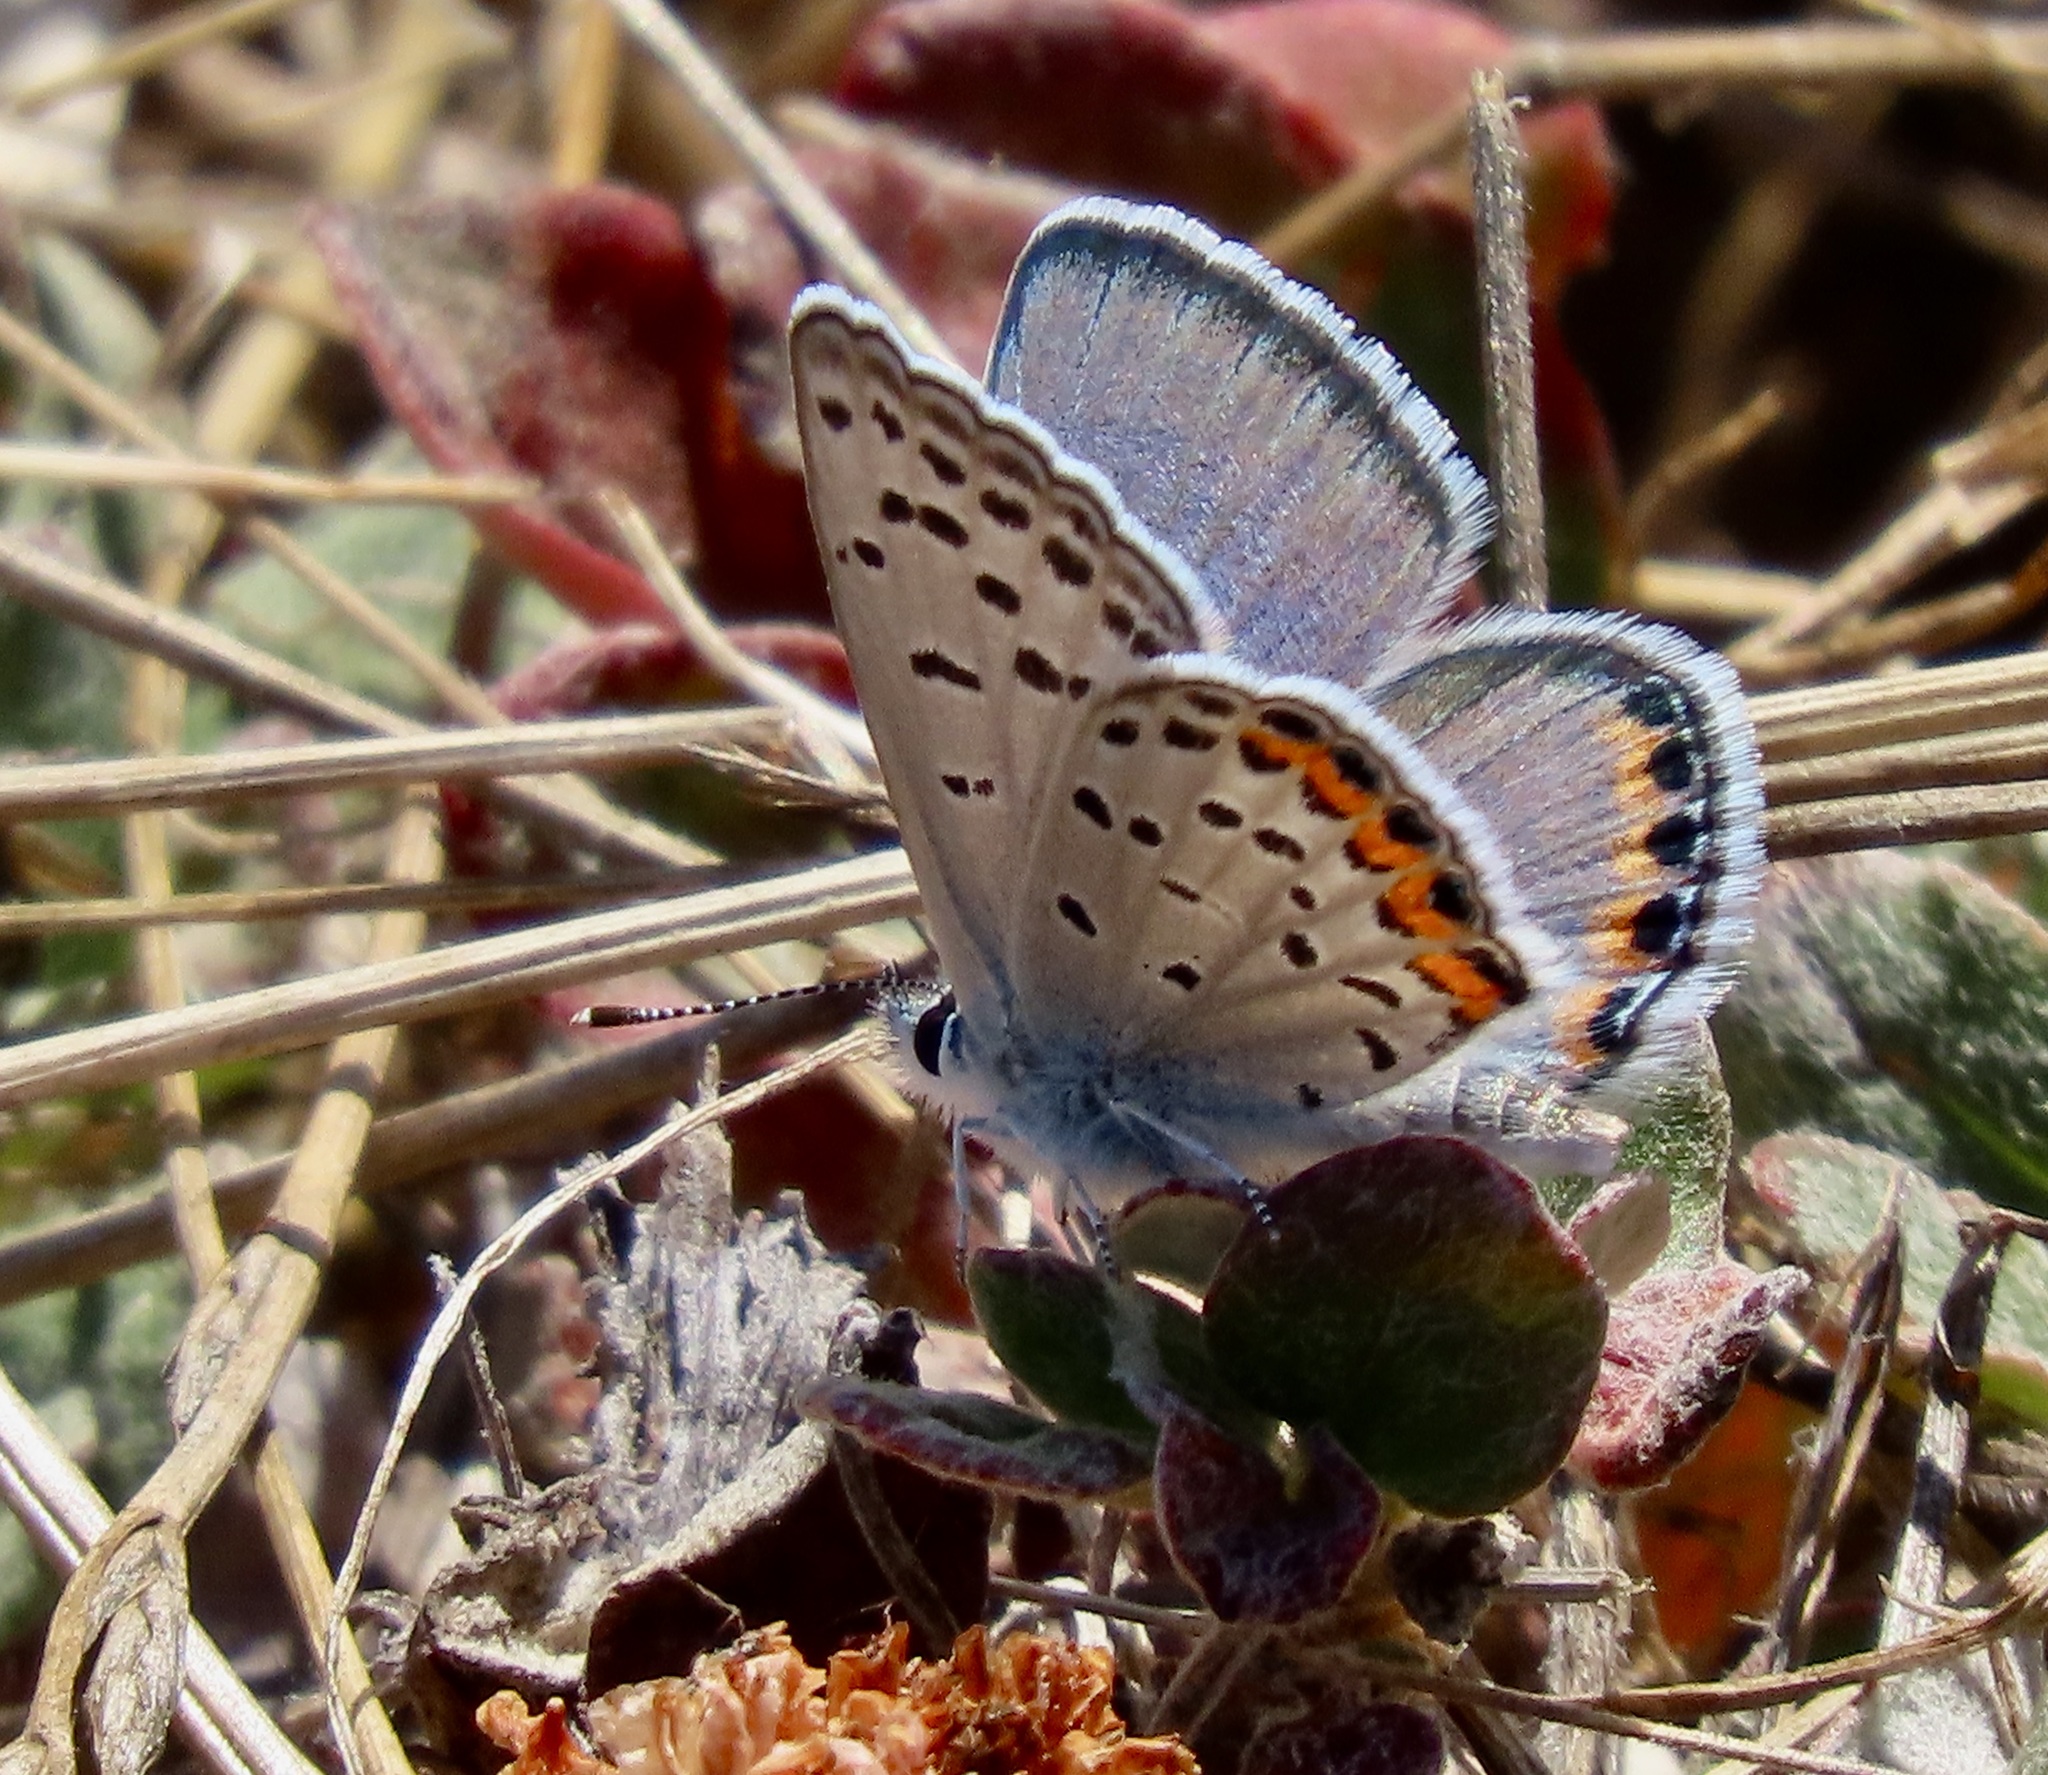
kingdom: Animalia
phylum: Arthropoda
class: Insecta
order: Lepidoptera
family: Lycaenidae
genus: Icaricia
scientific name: Icaricia acmon
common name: Acmon blue
